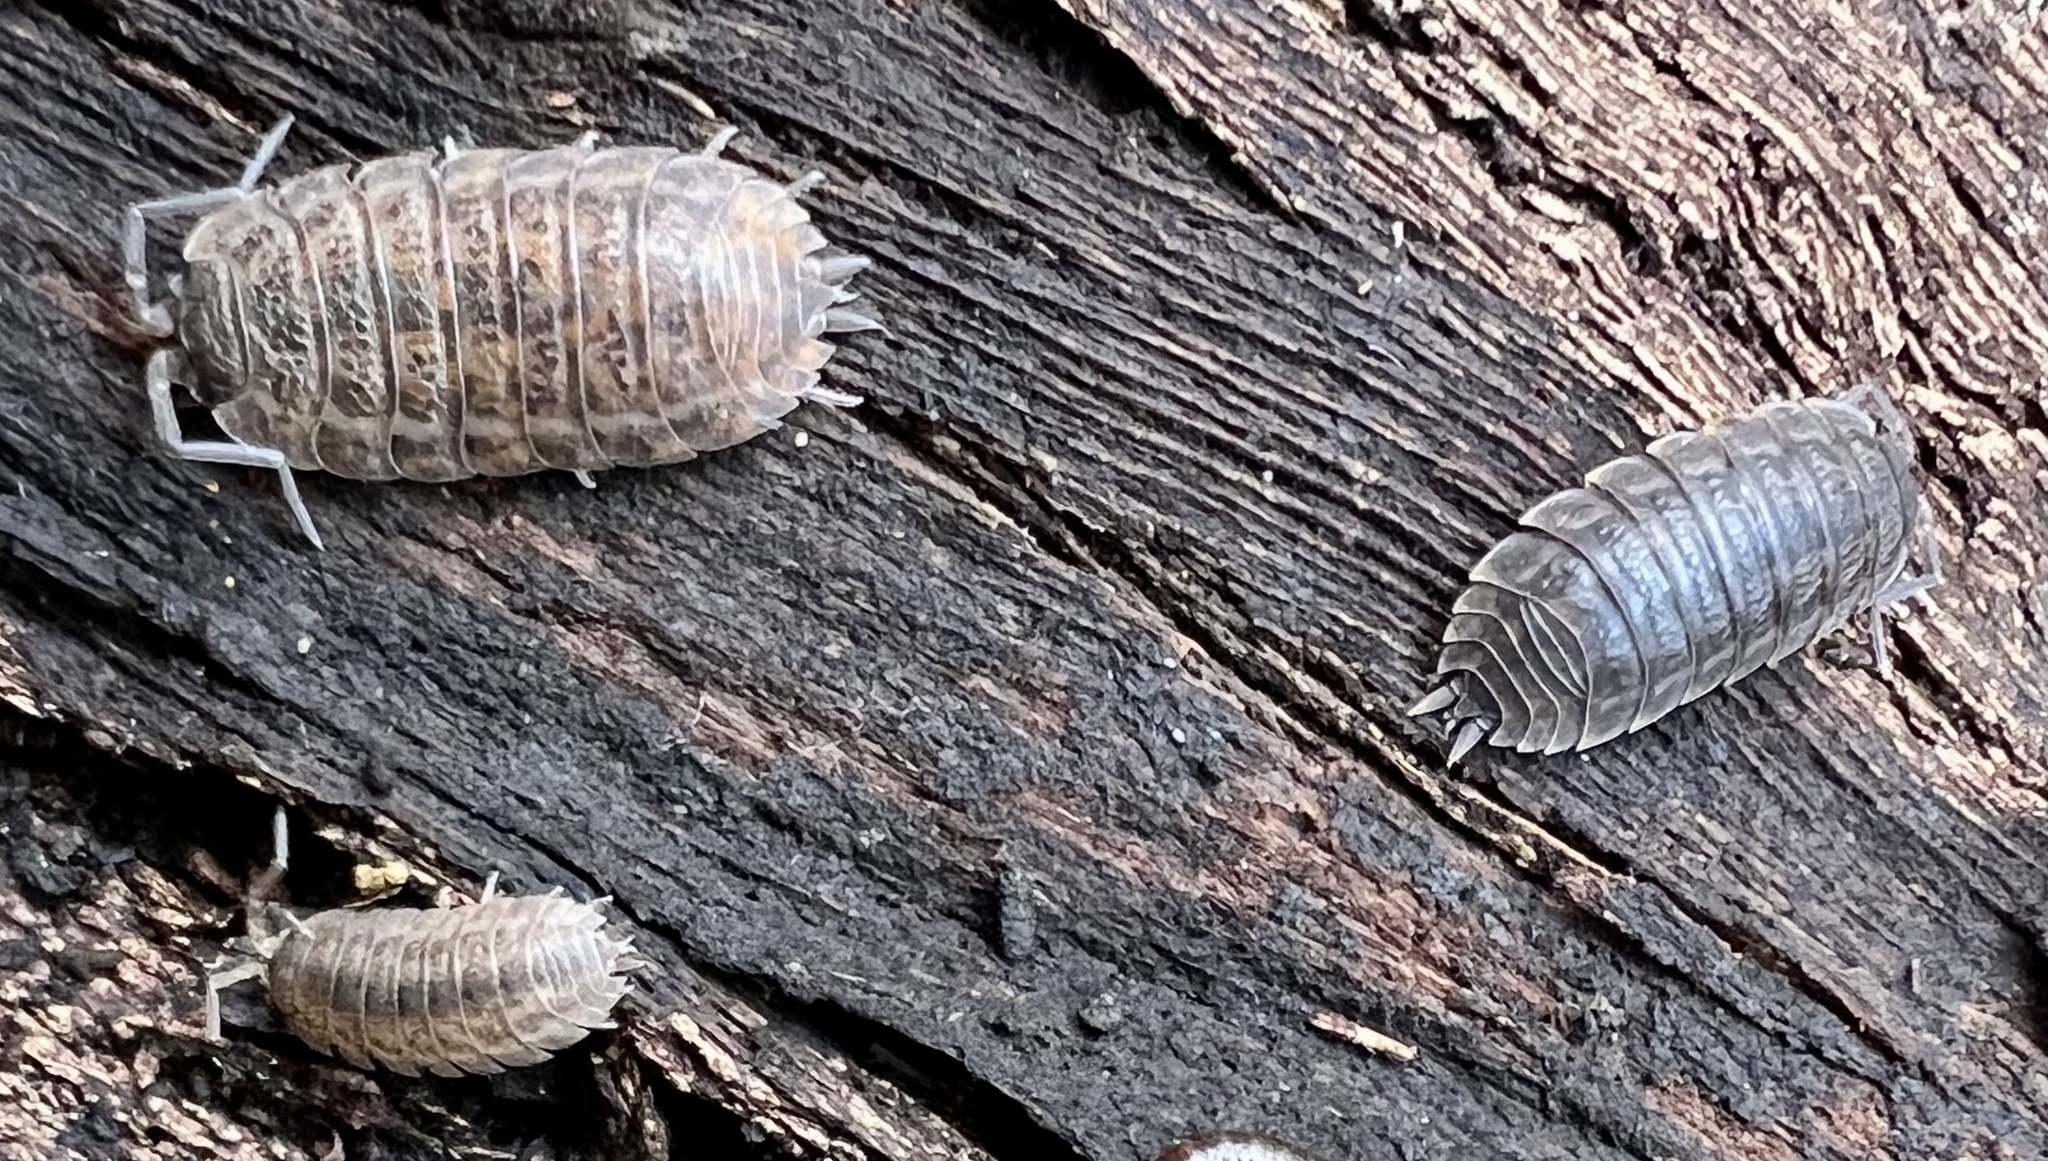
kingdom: Animalia
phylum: Arthropoda
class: Malacostraca
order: Isopoda
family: Trachelipodidae
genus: Trachelipus
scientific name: Trachelipus rathkii
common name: Isopod
